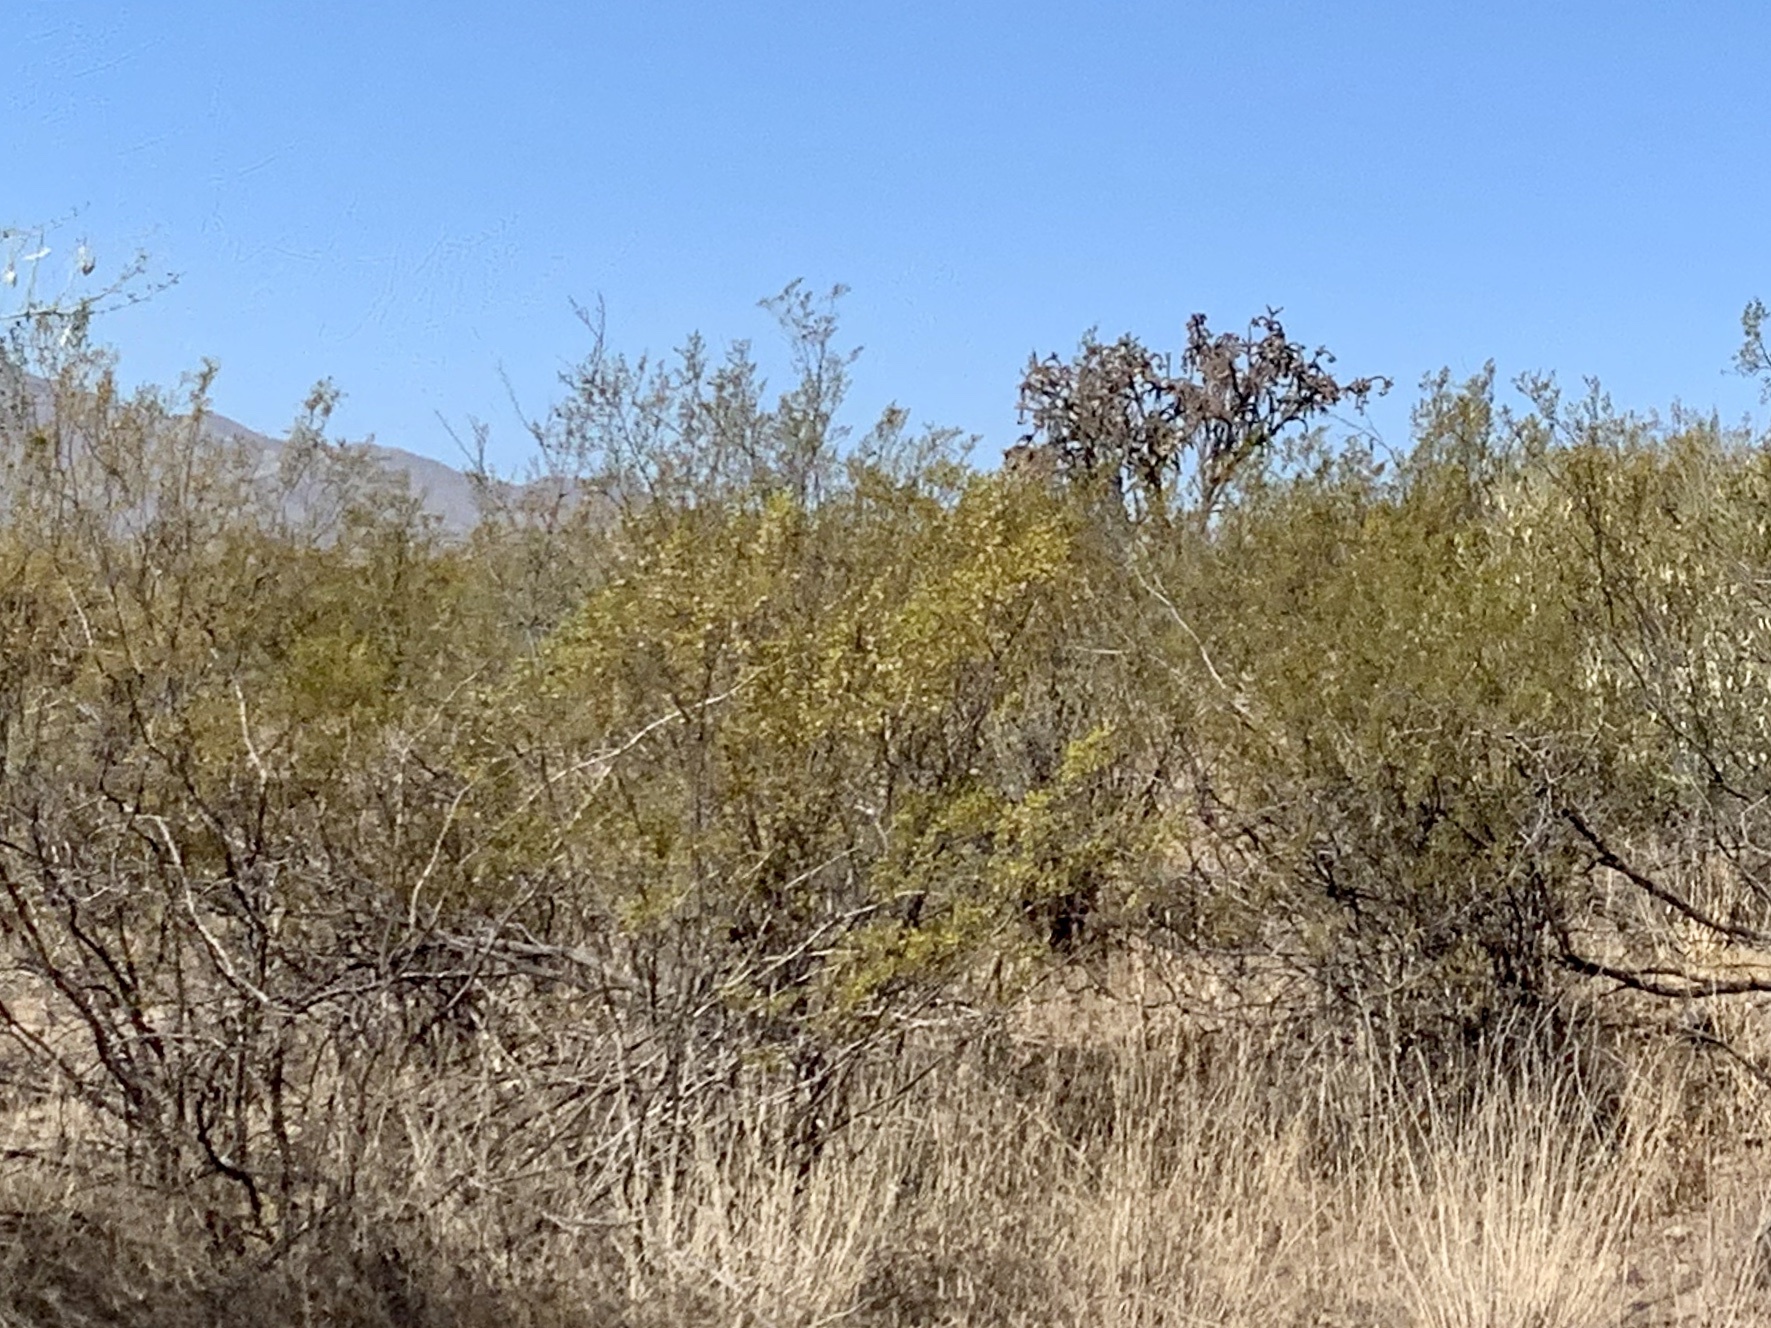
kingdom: Plantae
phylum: Tracheophyta
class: Magnoliopsida
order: Zygophyllales
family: Zygophyllaceae
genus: Larrea
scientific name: Larrea tridentata
